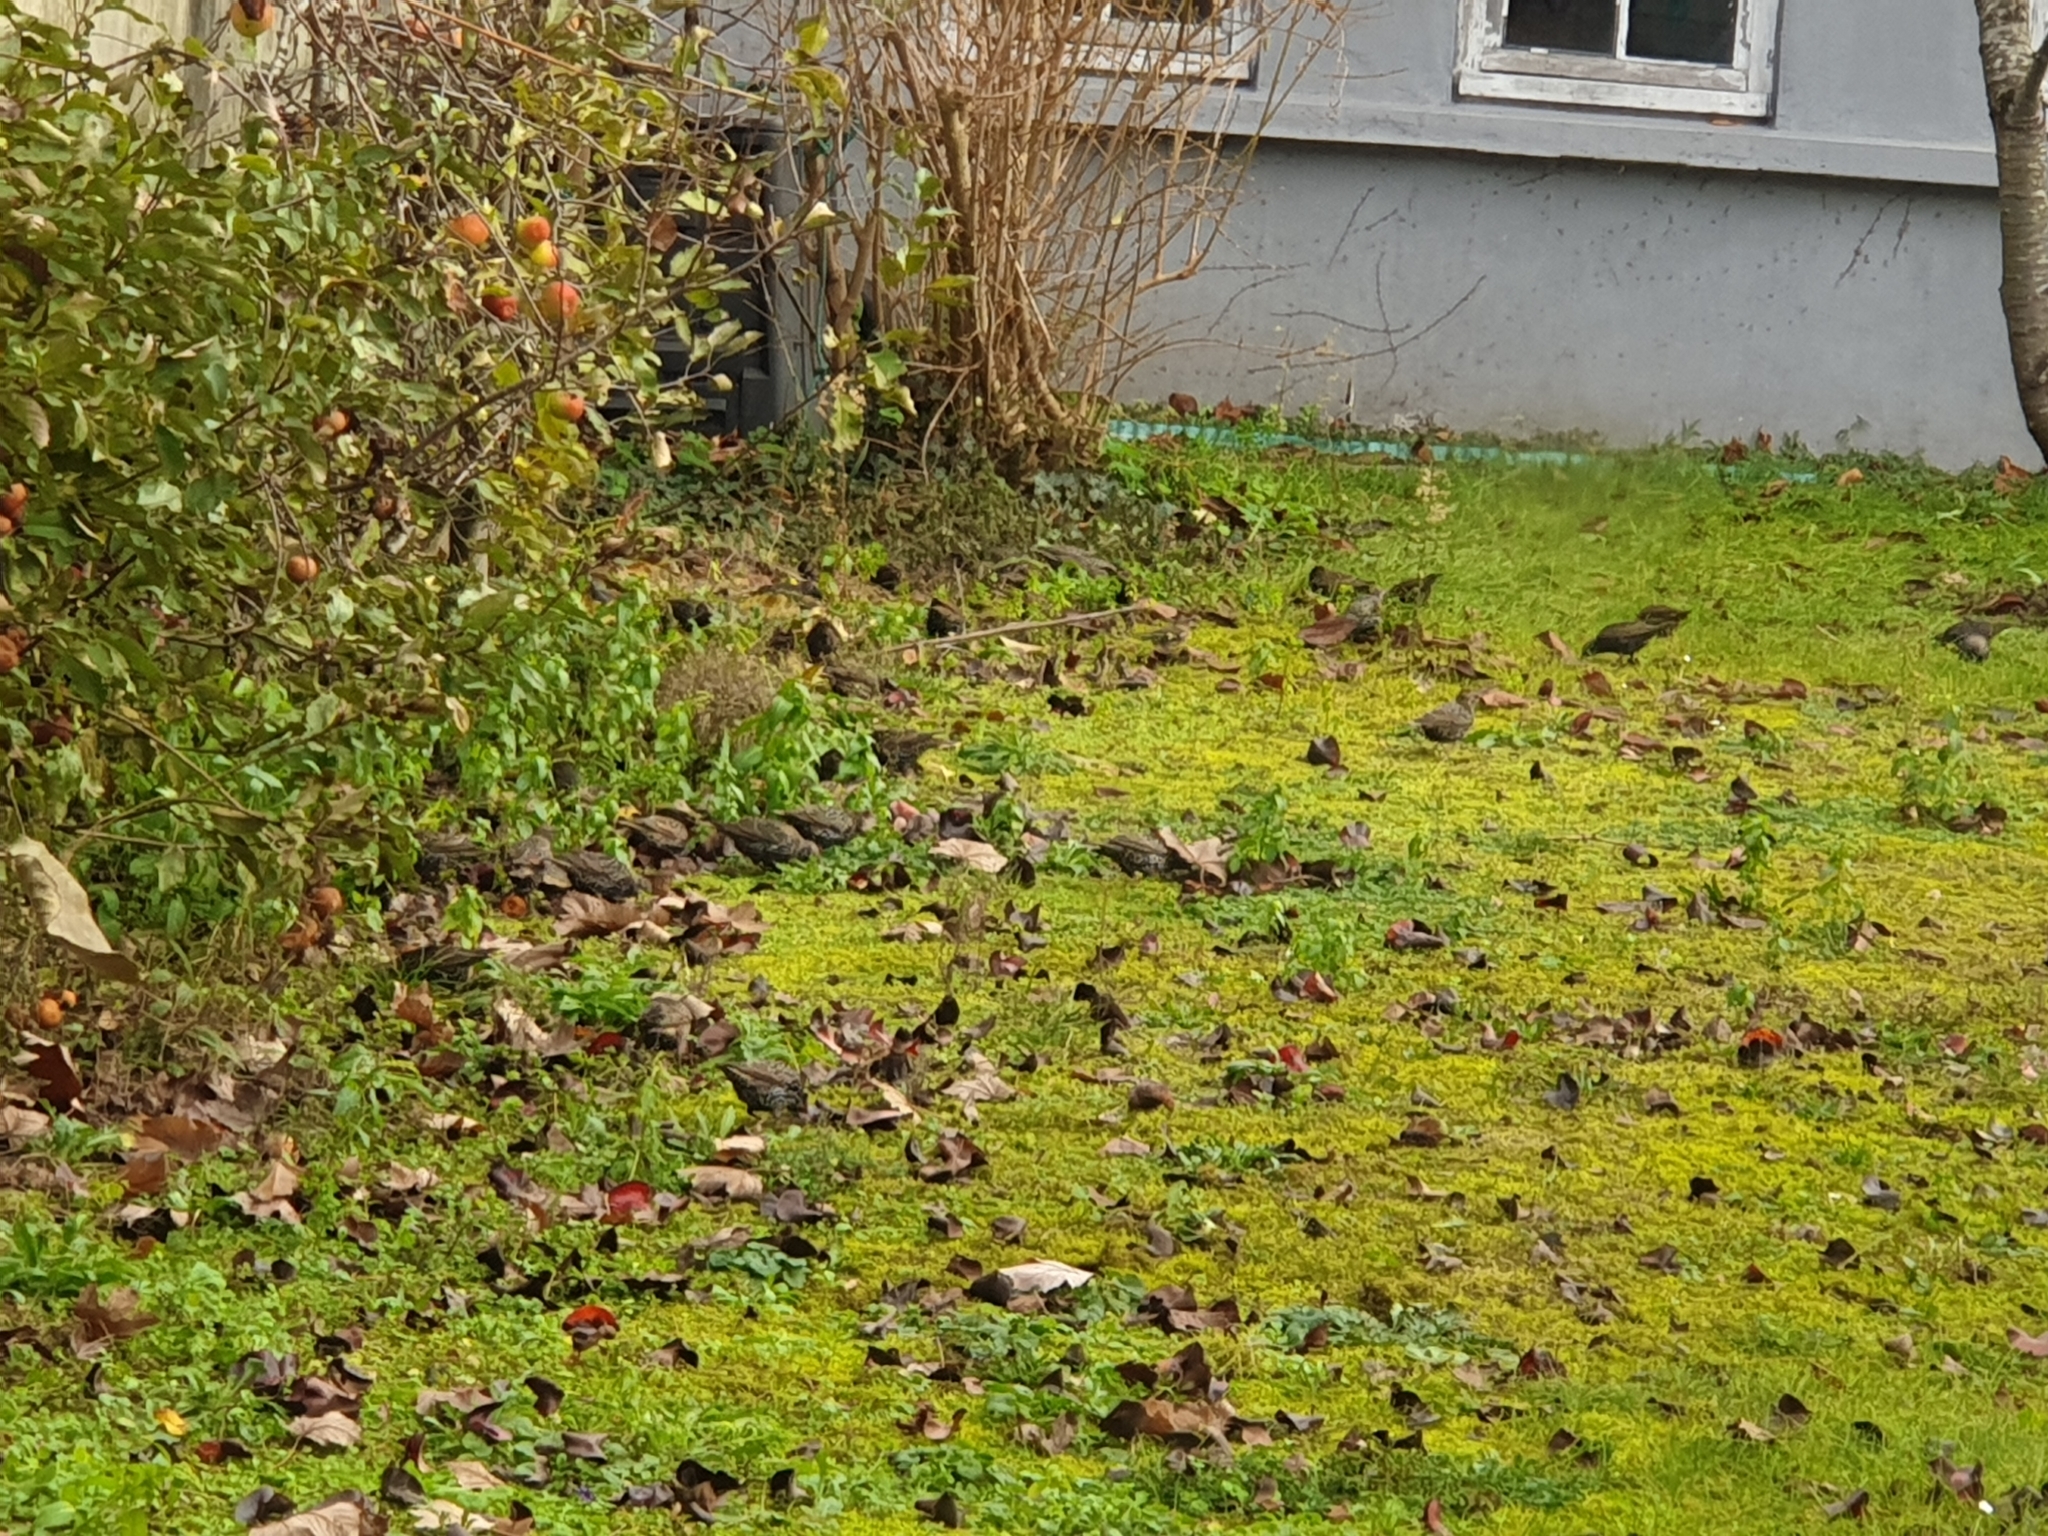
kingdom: Animalia
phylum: Chordata
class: Aves
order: Passeriformes
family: Sturnidae
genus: Sturnus
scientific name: Sturnus vulgaris
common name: Common starling
